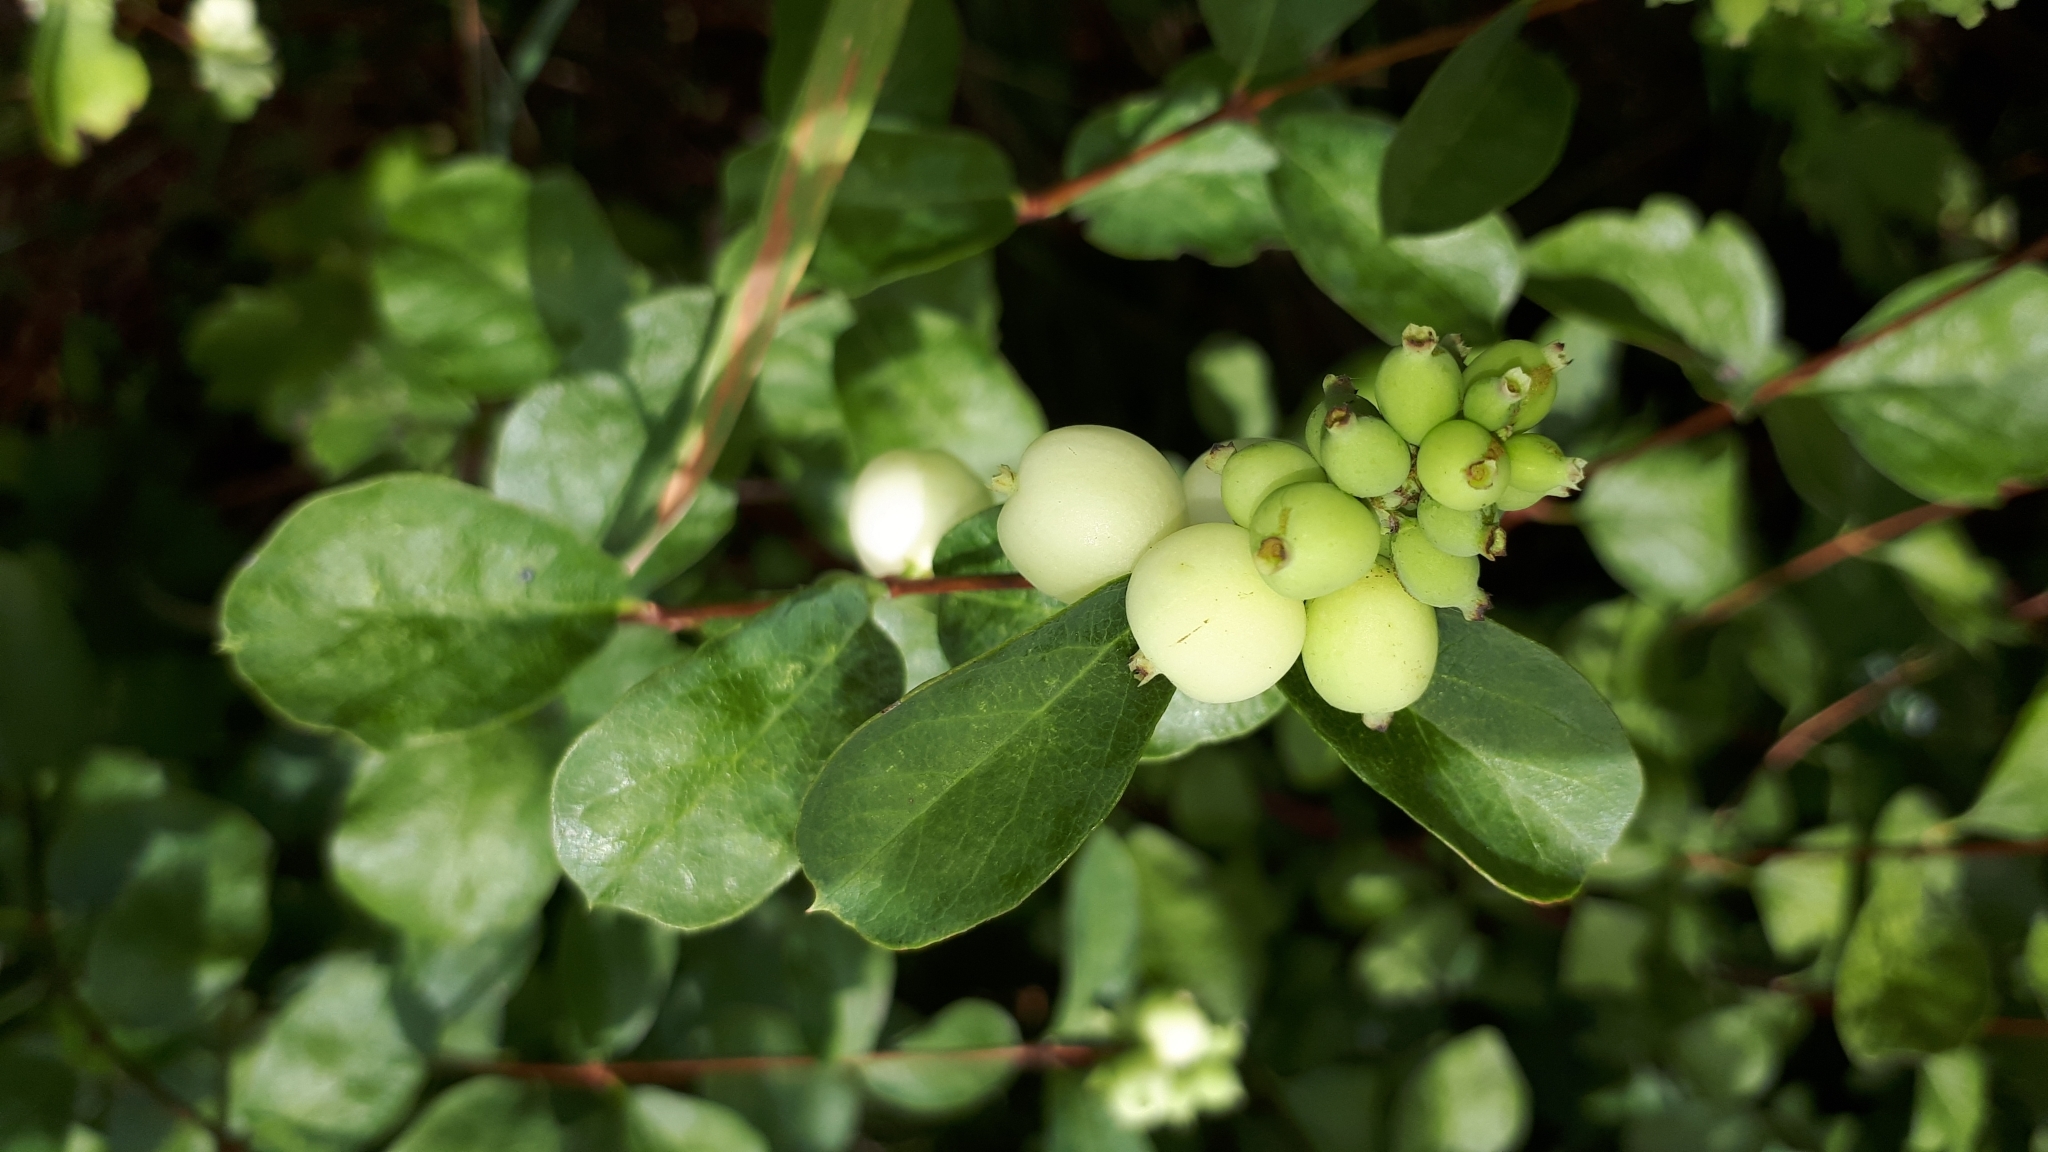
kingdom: Plantae
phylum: Tracheophyta
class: Magnoliopsida
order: Dipsacales
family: Caprifoliaceae
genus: Symphoricarpos
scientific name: Symphoricarpos albus
